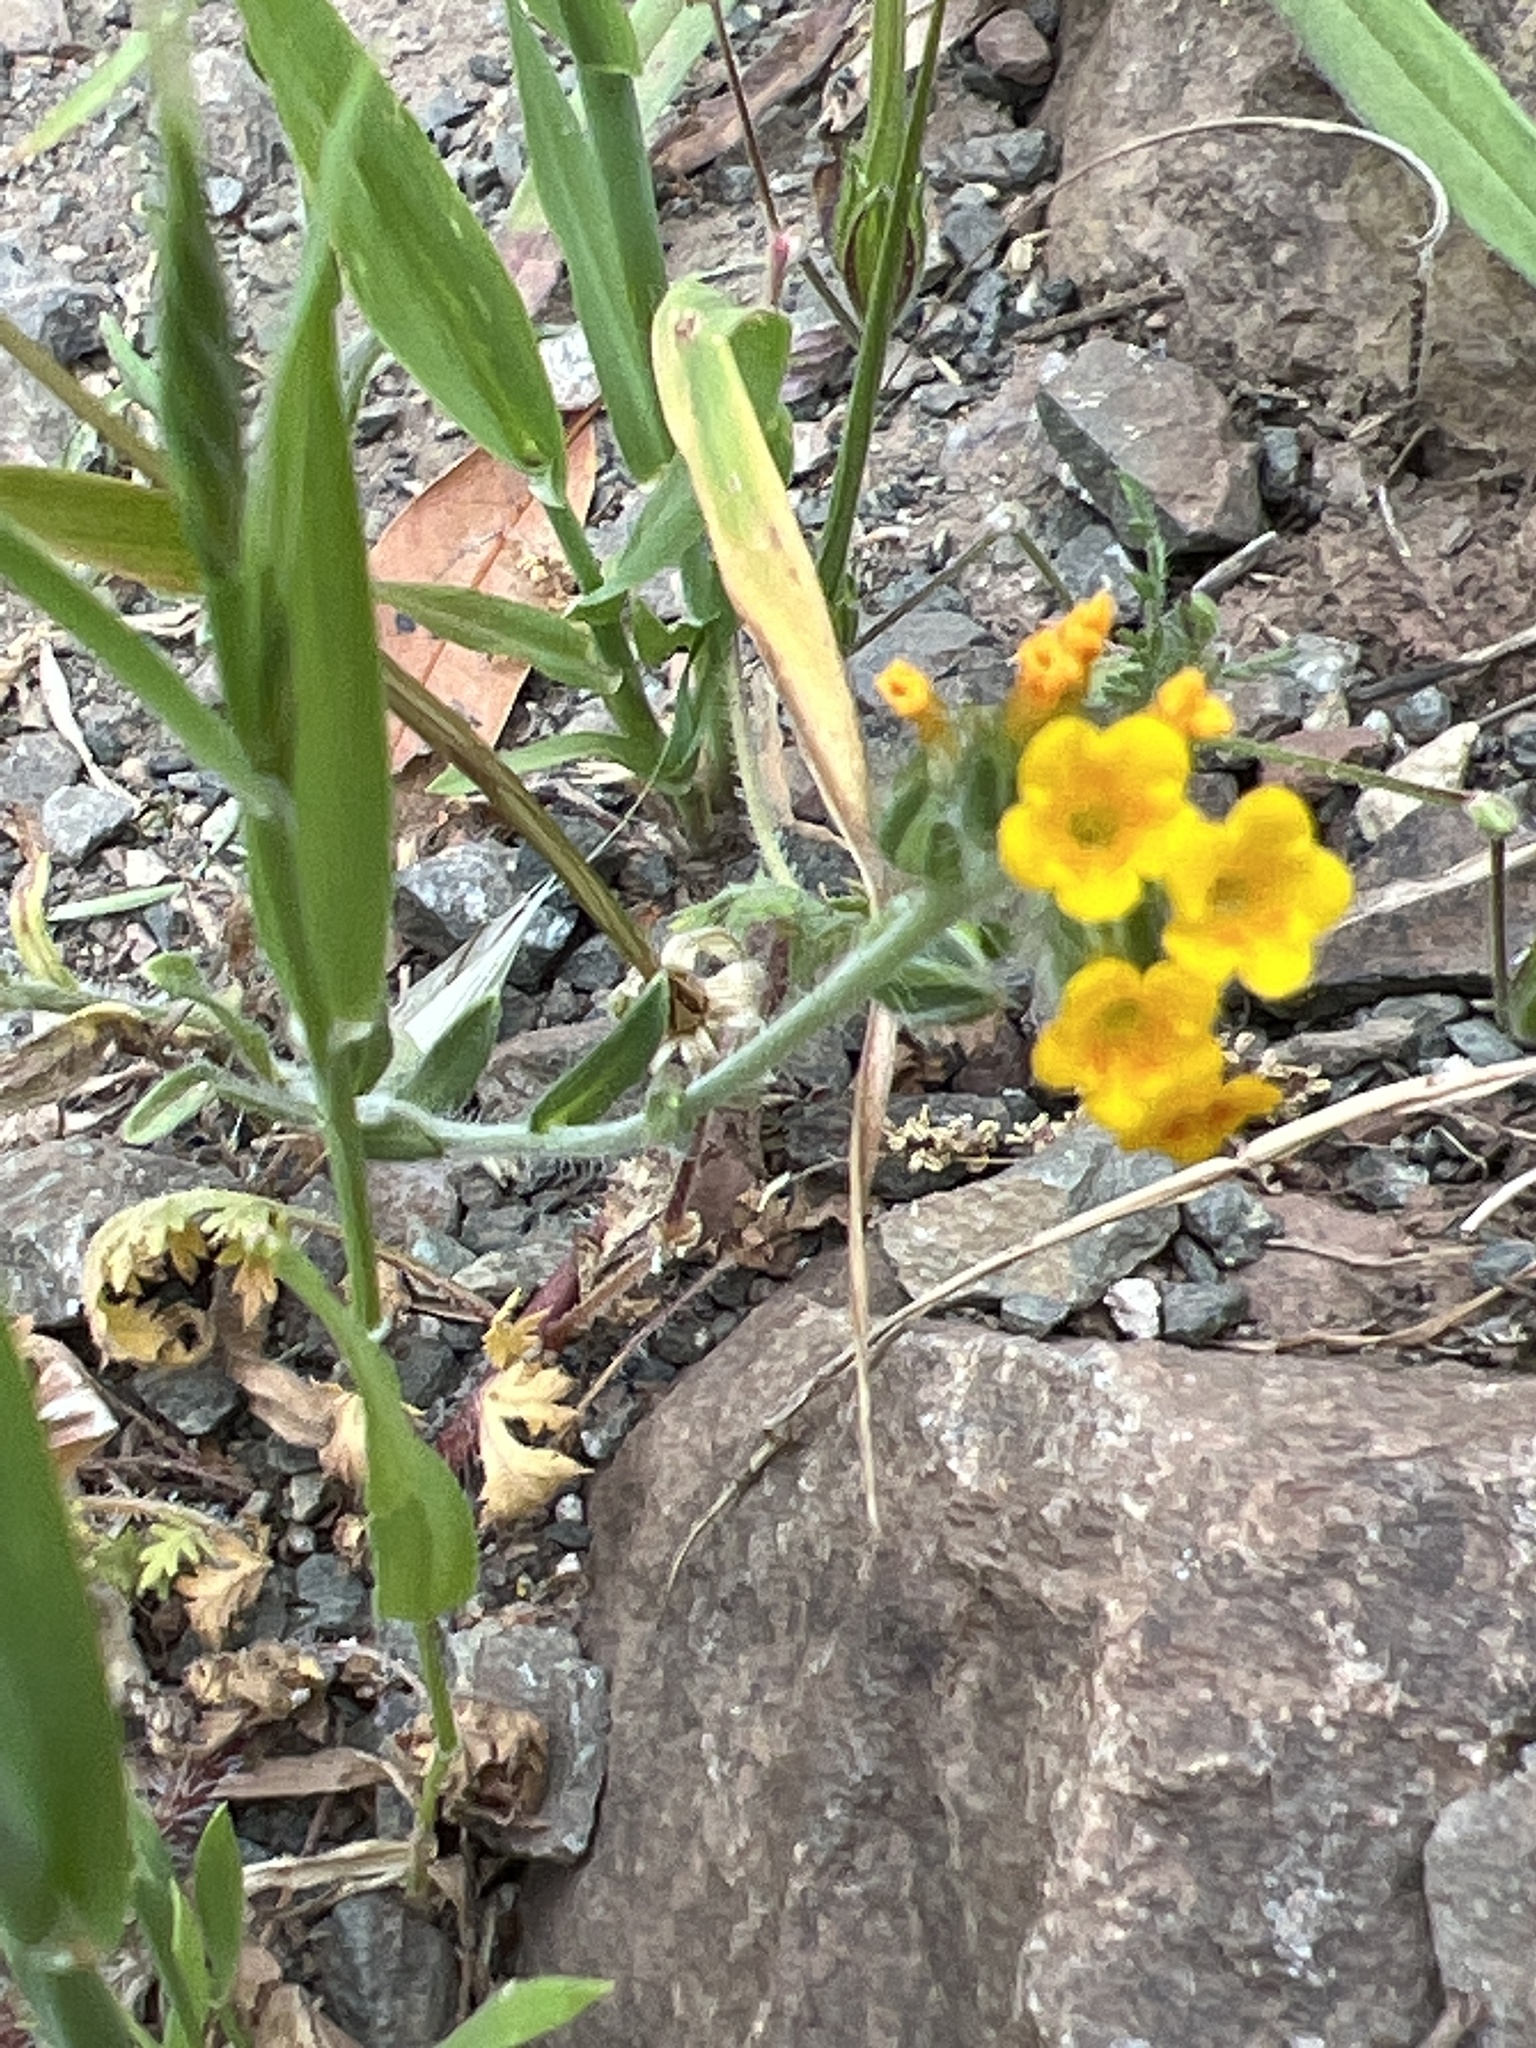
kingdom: Plantae
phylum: Tracheophyta
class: Magnoliopsida
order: Boraginales
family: Boraginaceae
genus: Amsinckia
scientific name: Amsinckia menziesii
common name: Menzies' fiddleneck
